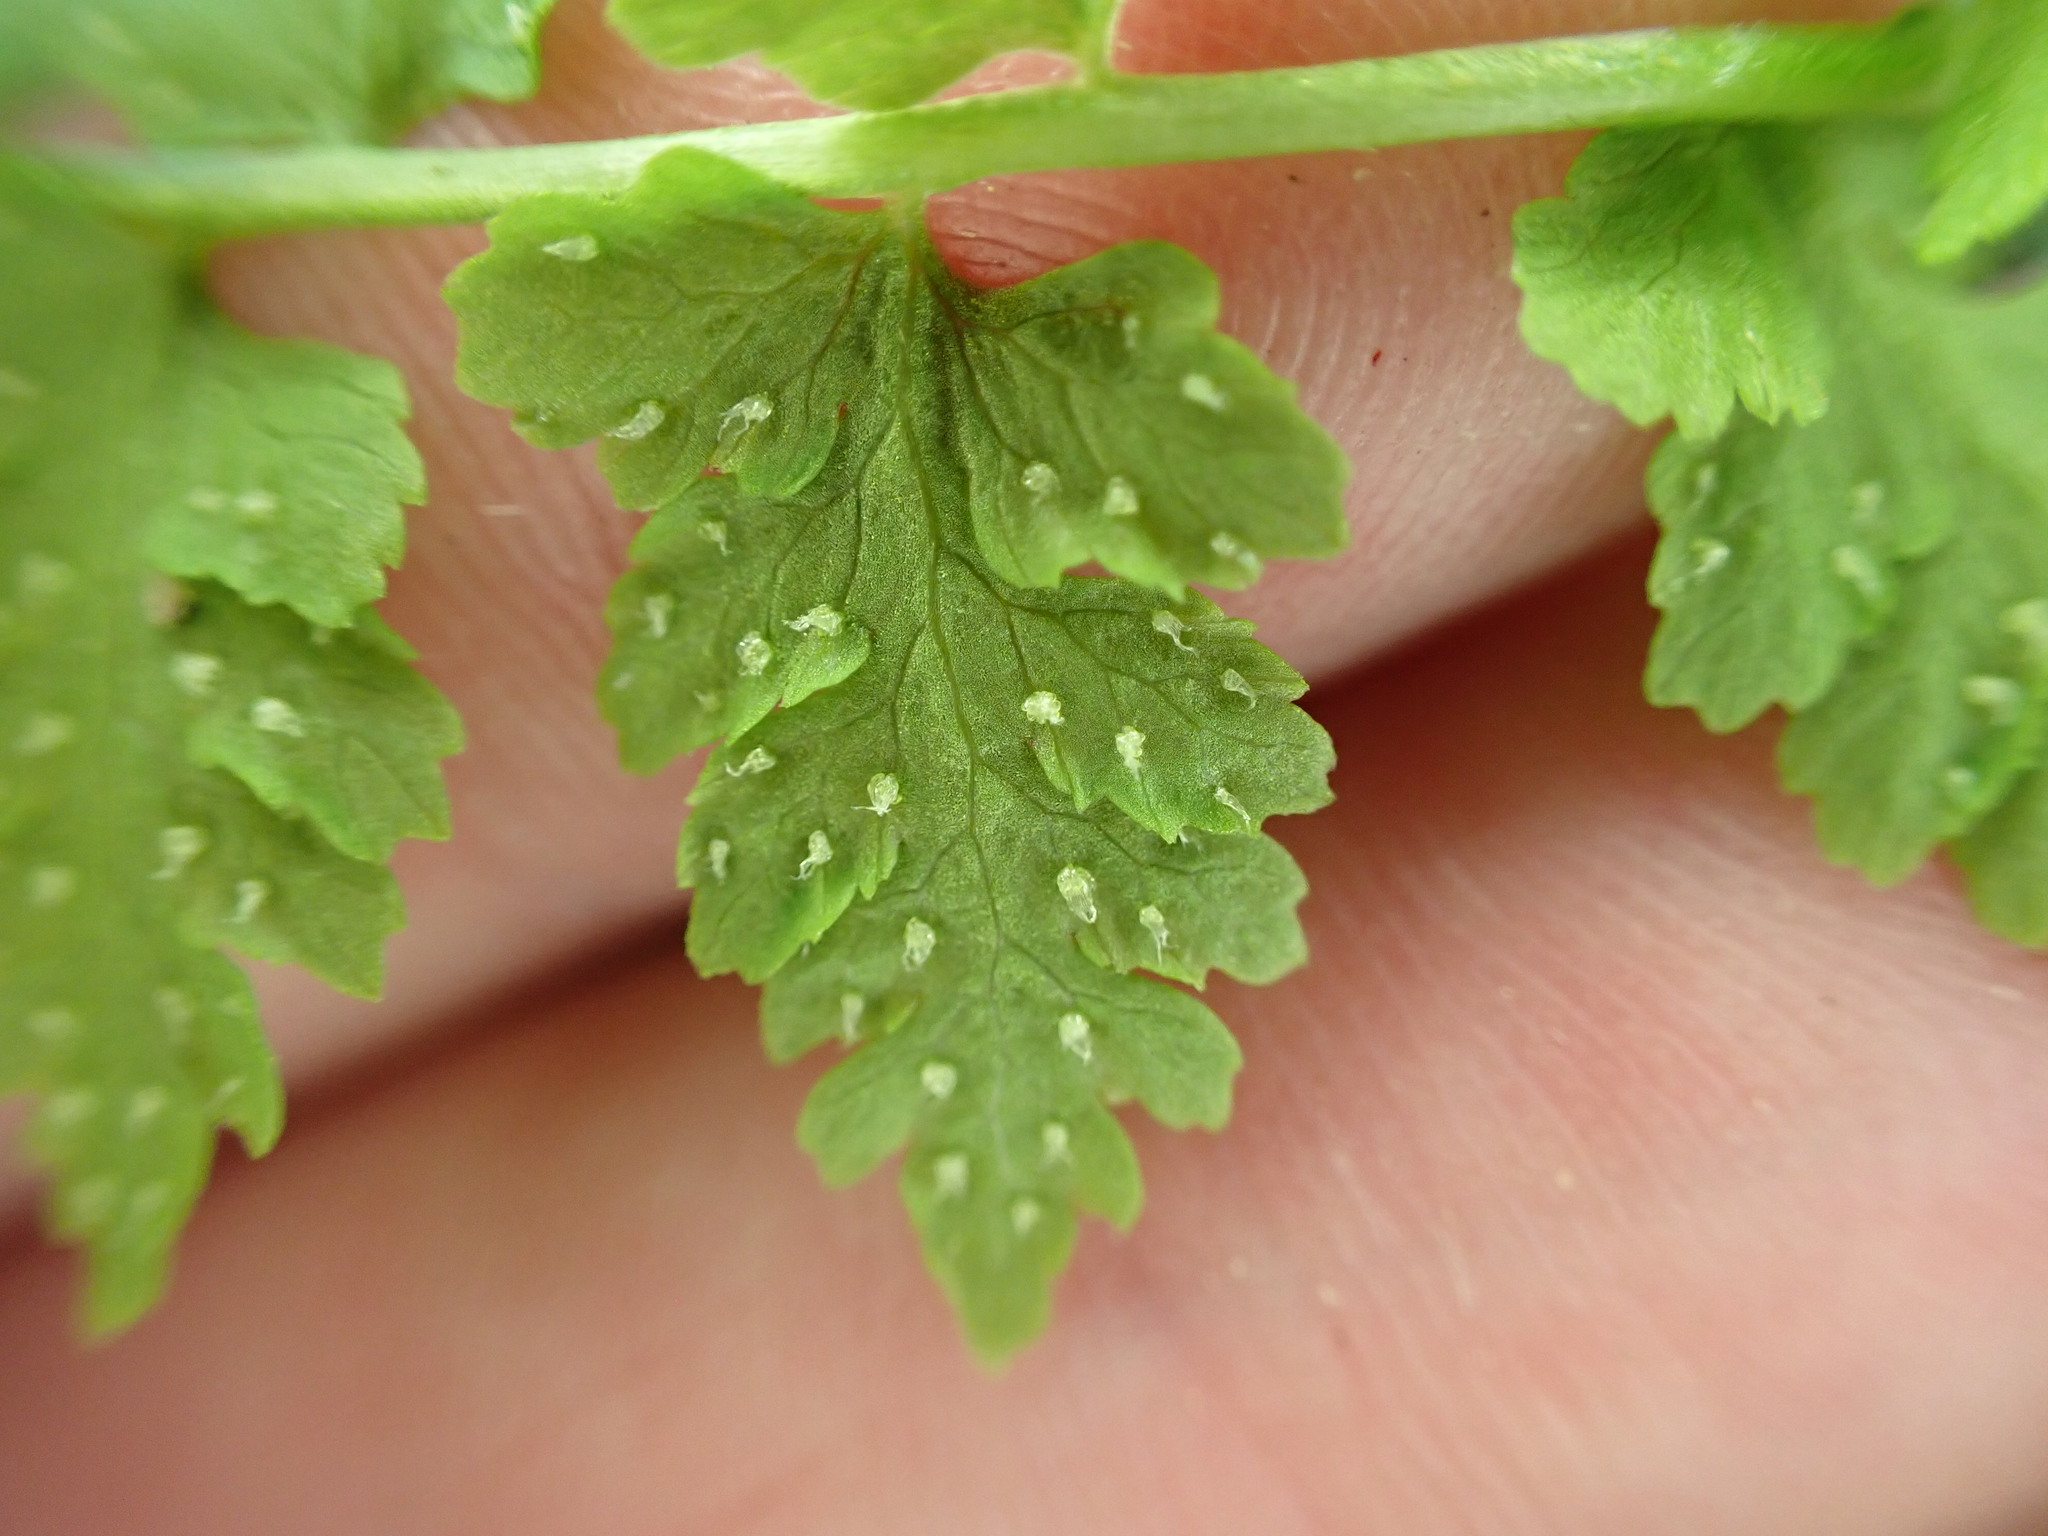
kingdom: Plantae
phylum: Tracheophyta
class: Polypodiopsida
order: Polypodiales
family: Cystopteridaceae
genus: Cystopteris
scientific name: Cystopteris fragilis
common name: Brittle bladder fern
